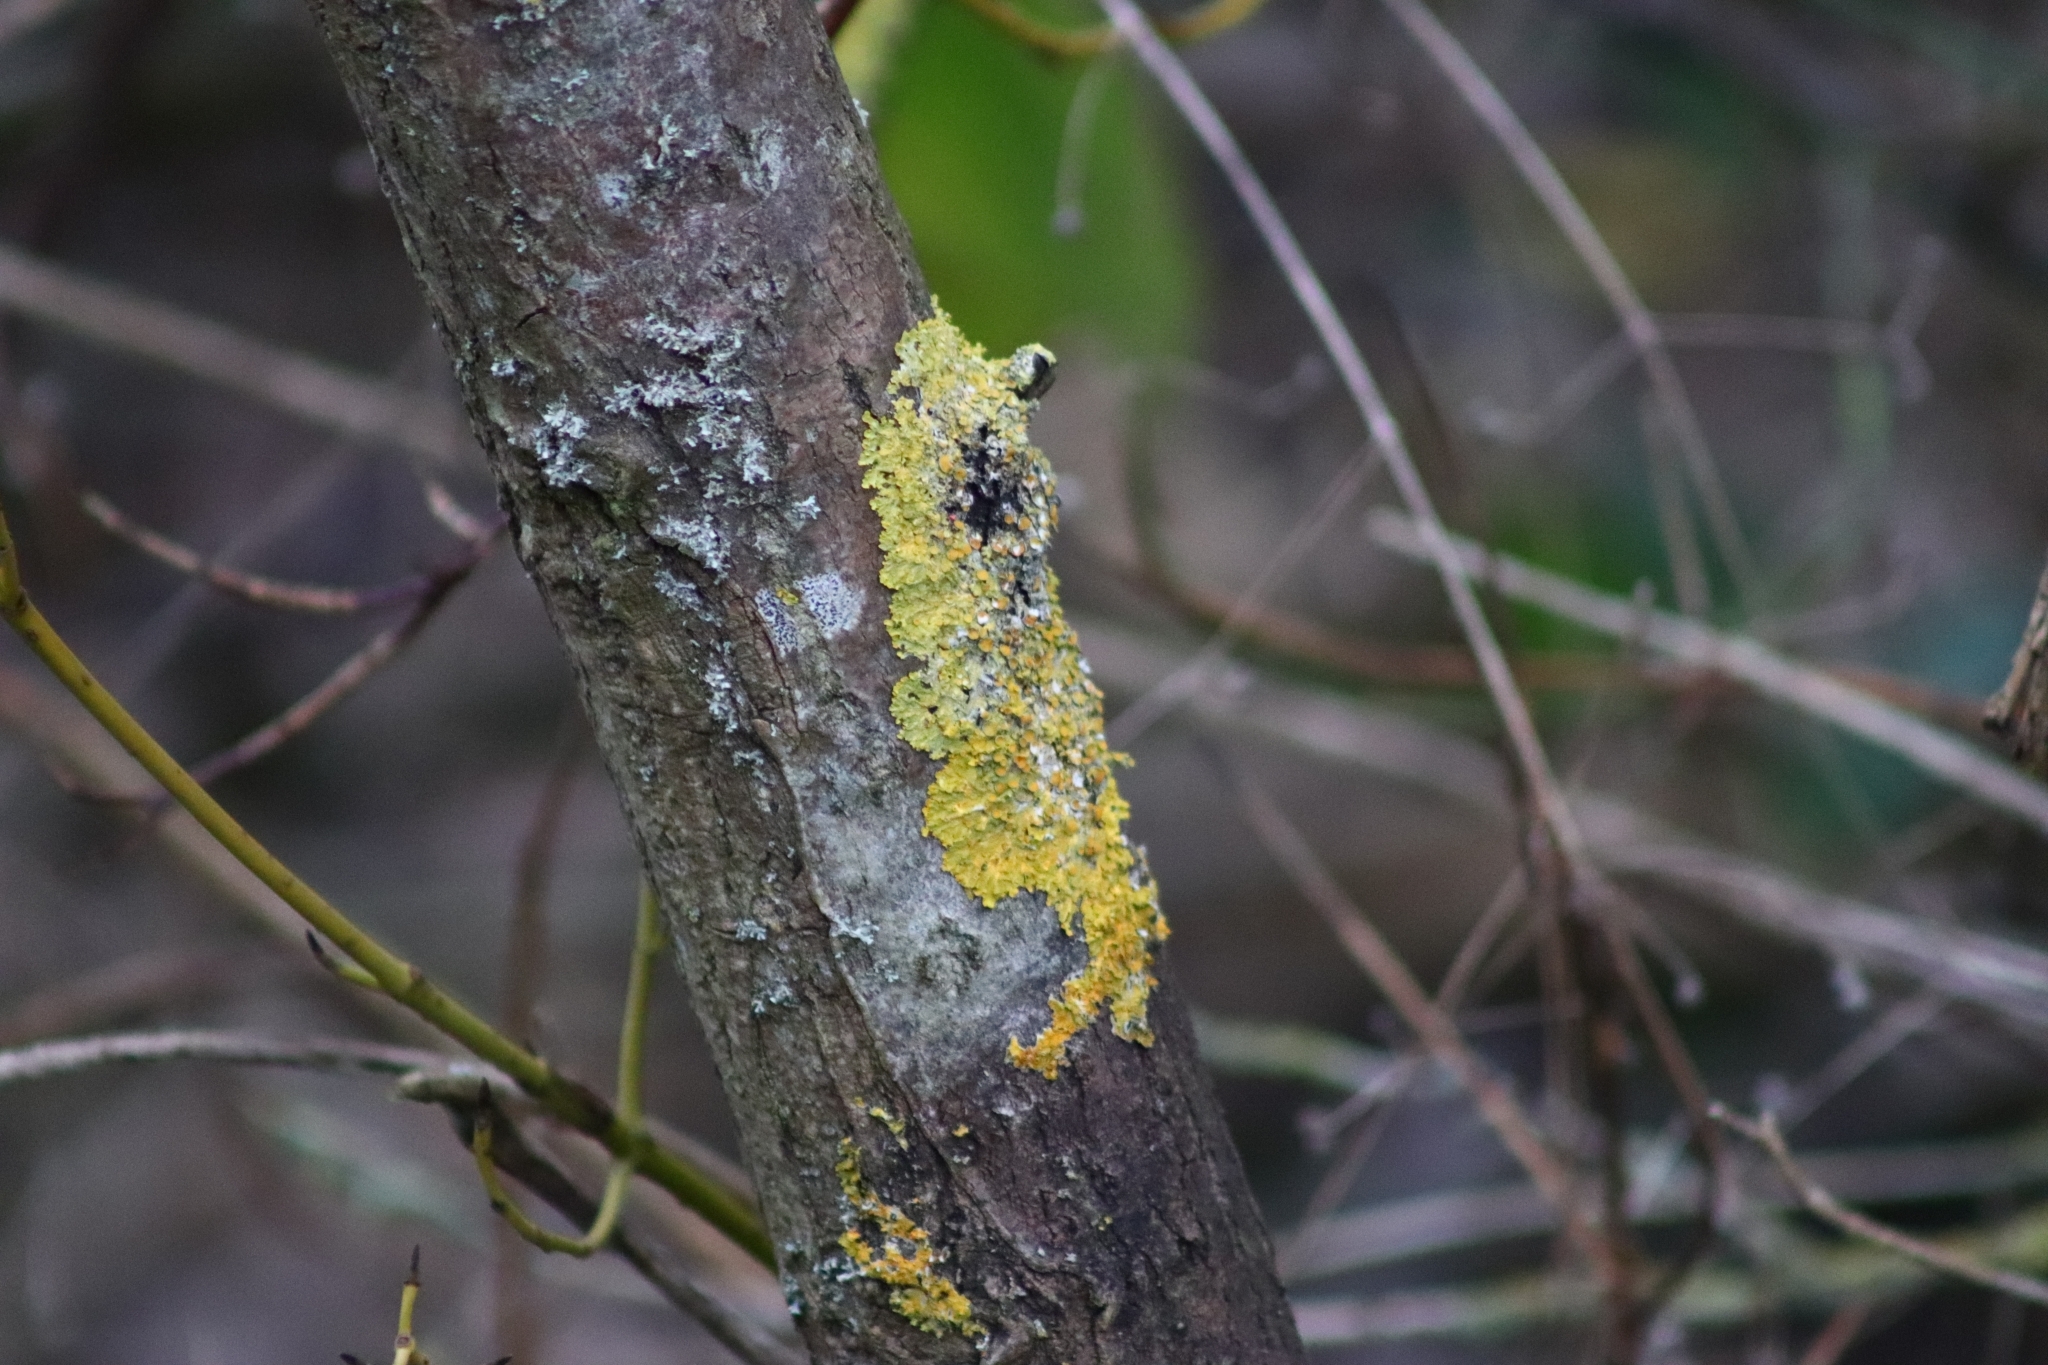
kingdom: Fungi
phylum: Ascomycota
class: Lecanoromycetes
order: Teloschistales
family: Teloschistaceae
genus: Xanthoria
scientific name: Xanthoria parietina
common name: Common orange lichen
